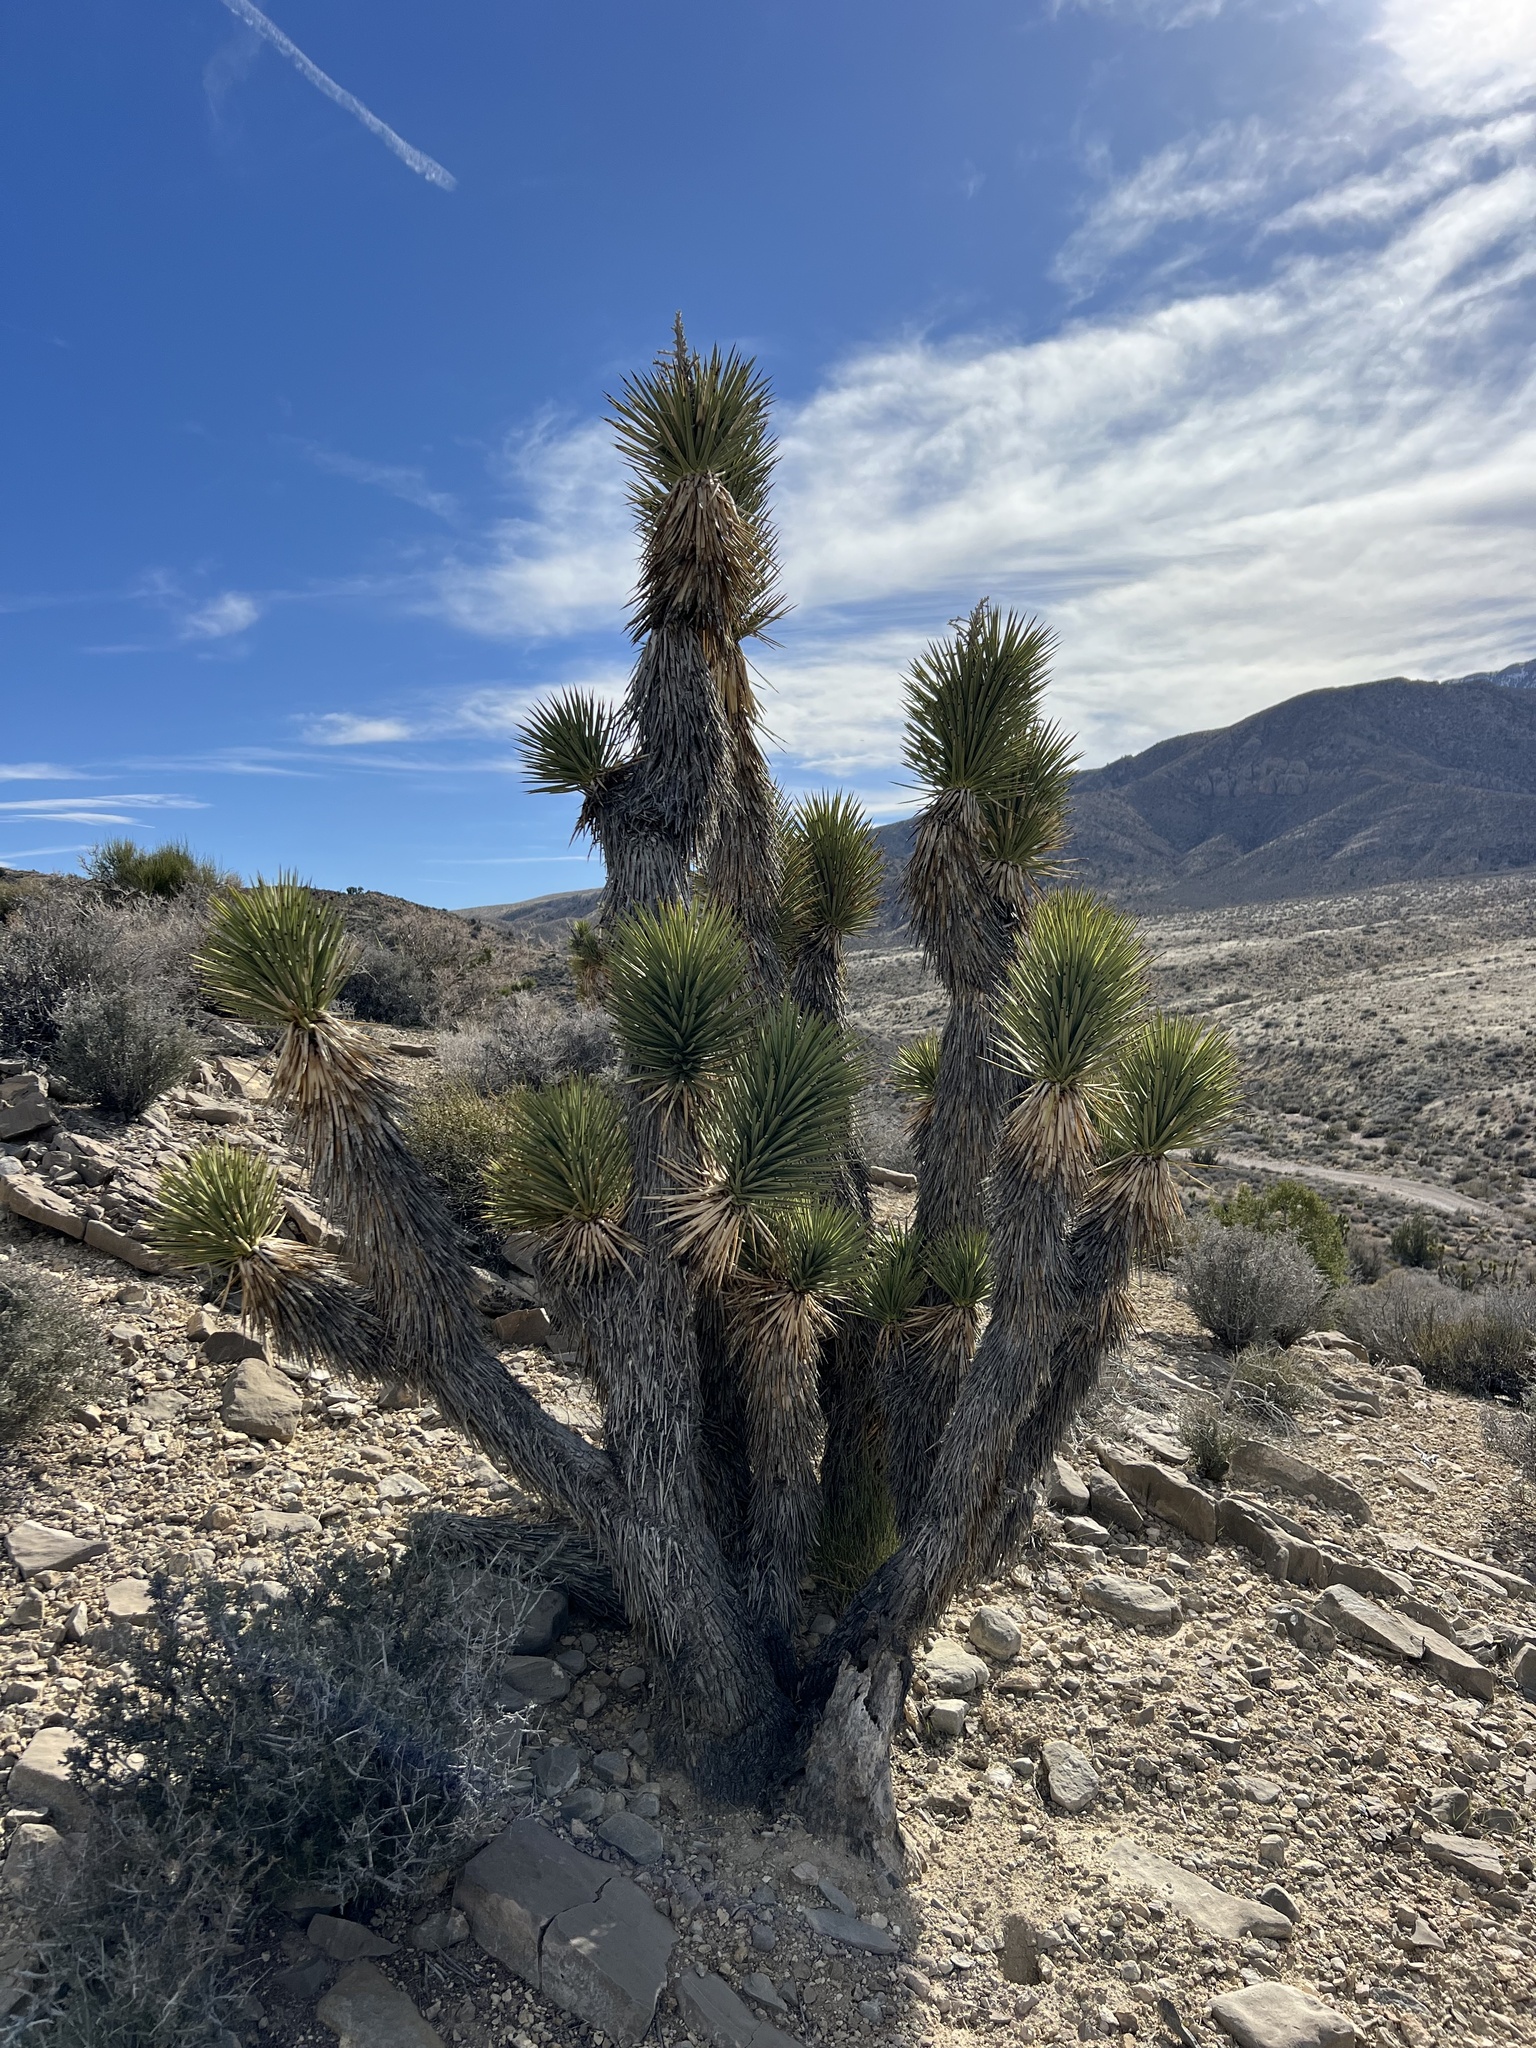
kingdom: Plantae
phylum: Tracheophyta
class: Liliopsida
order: Asparagales
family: Asparagaceae
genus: Yucca
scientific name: Yucca brevifolia
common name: Joshua tree
